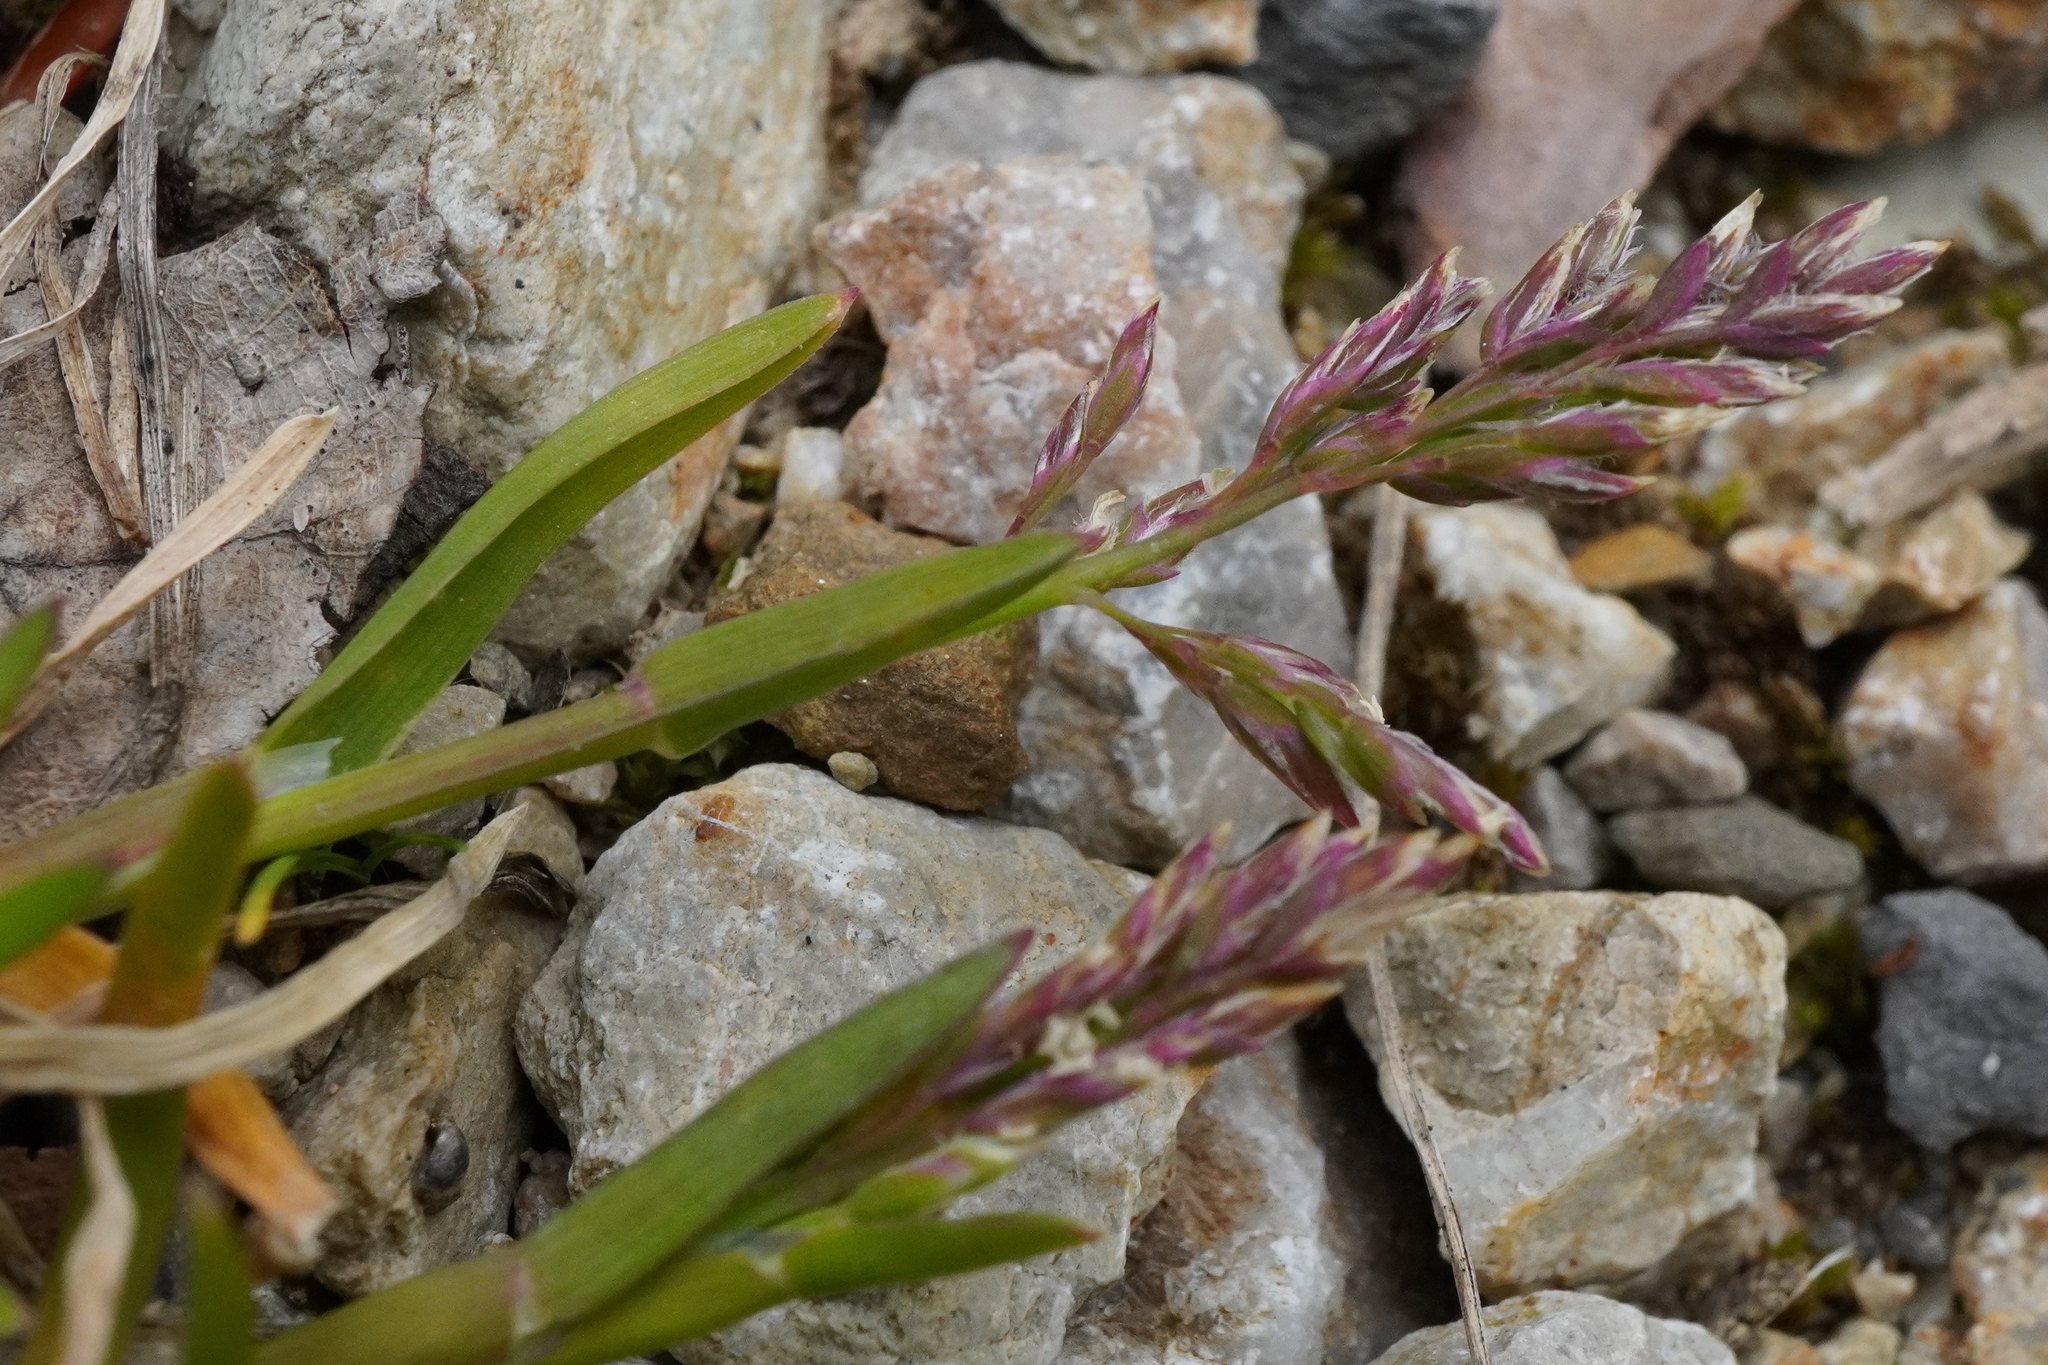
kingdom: Plantae
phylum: Tracheophyta
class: Liliopsida
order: Poales
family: Poaceae
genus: Poa
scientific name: Poa annua
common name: Annual bluegrass
